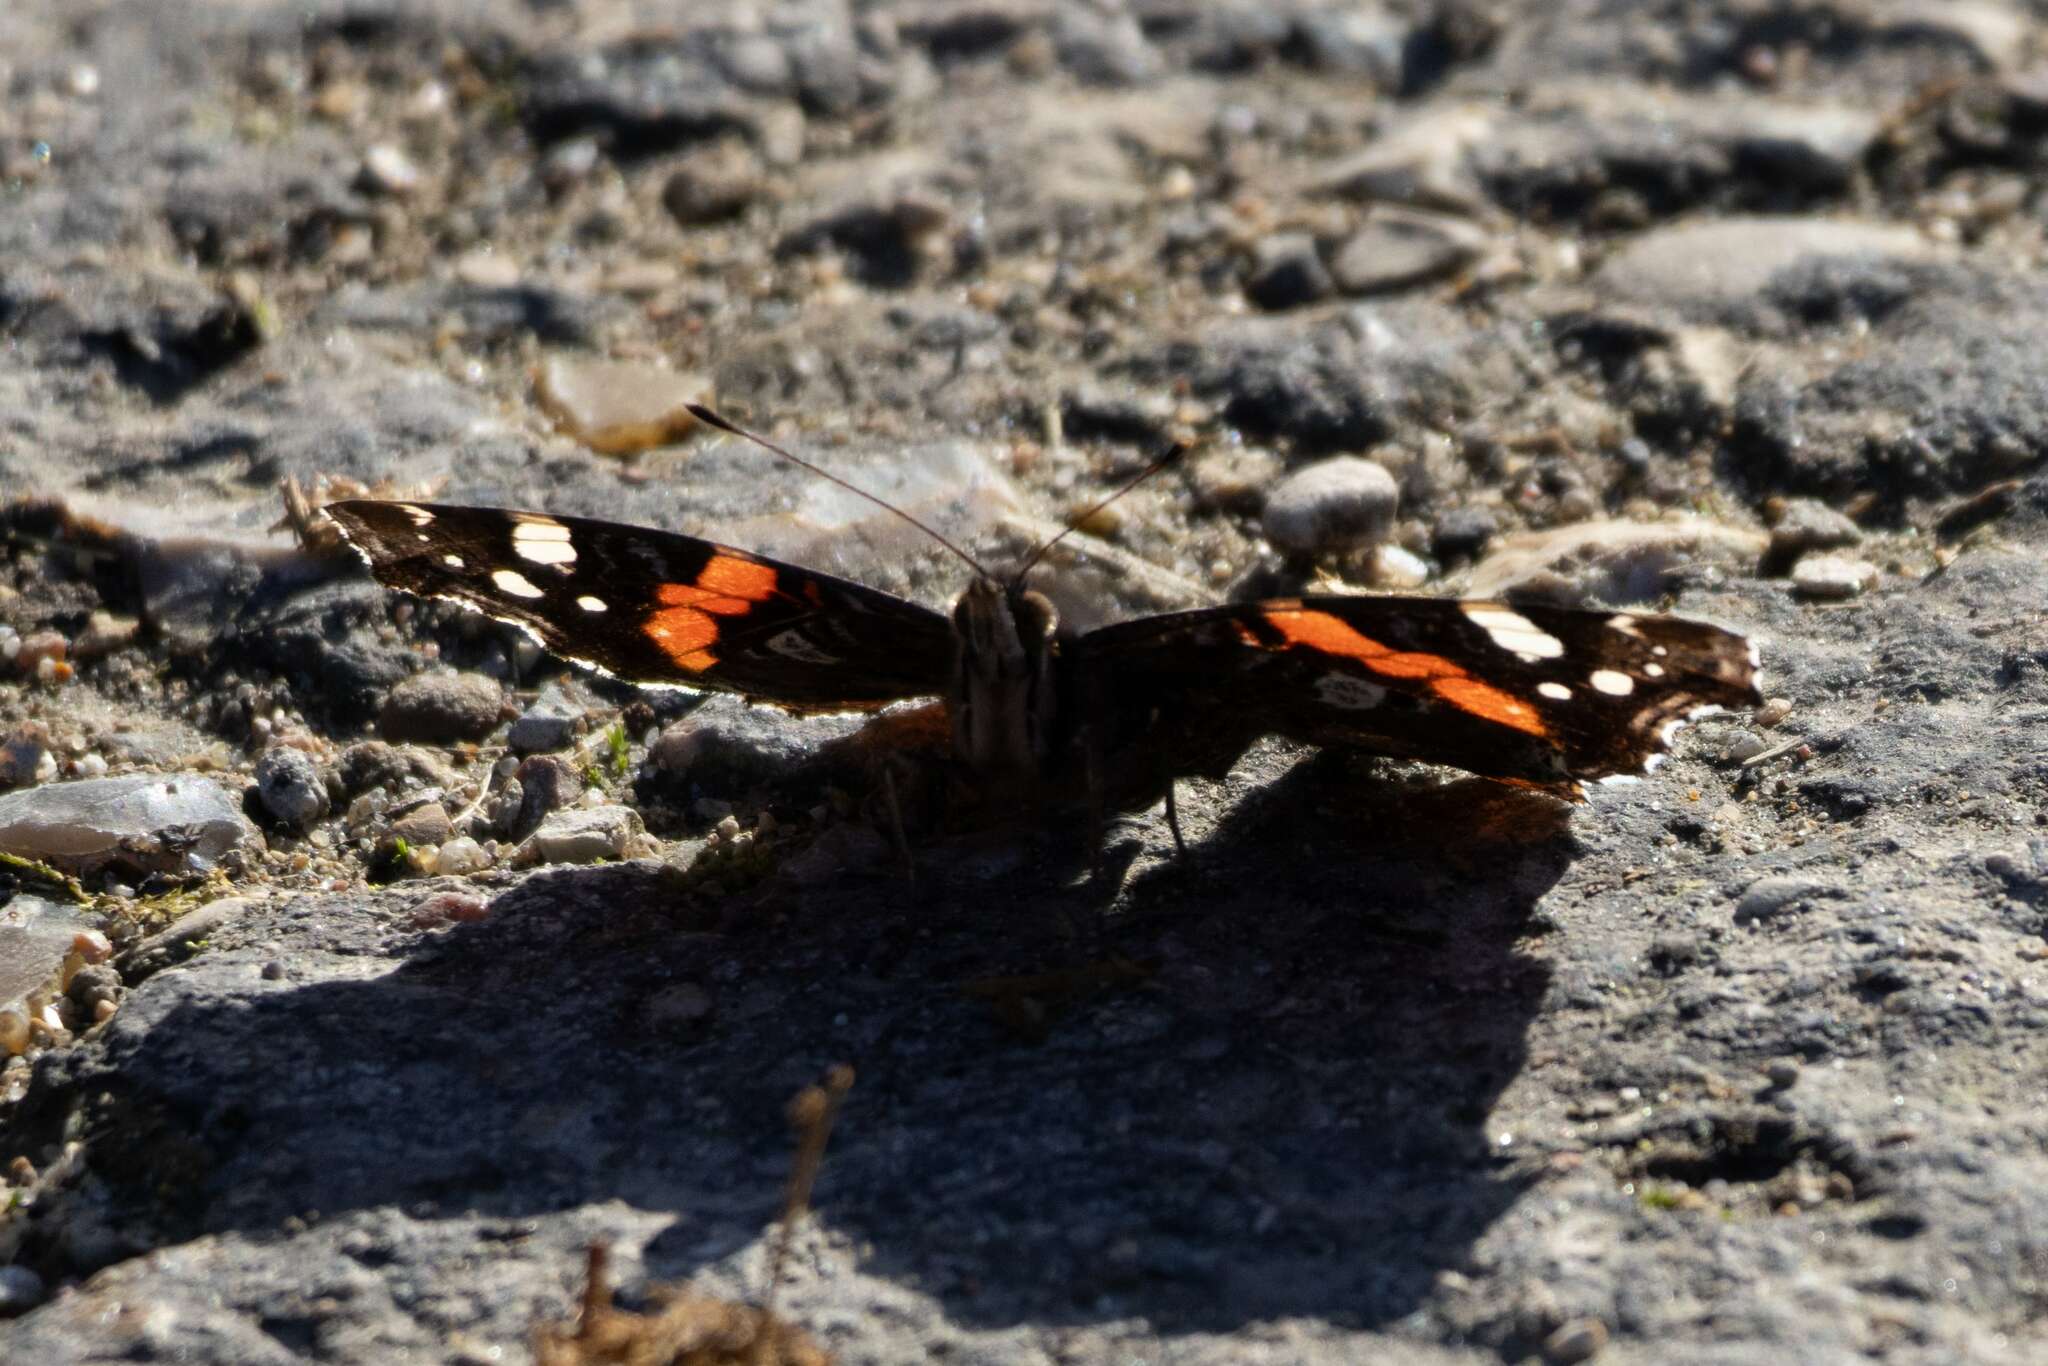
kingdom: Animalia
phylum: Arthropoda
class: Insecta
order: Lepidoptera
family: Nymphalidae
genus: Vanessa
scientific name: Vanessa atalanta
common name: Red admiral
